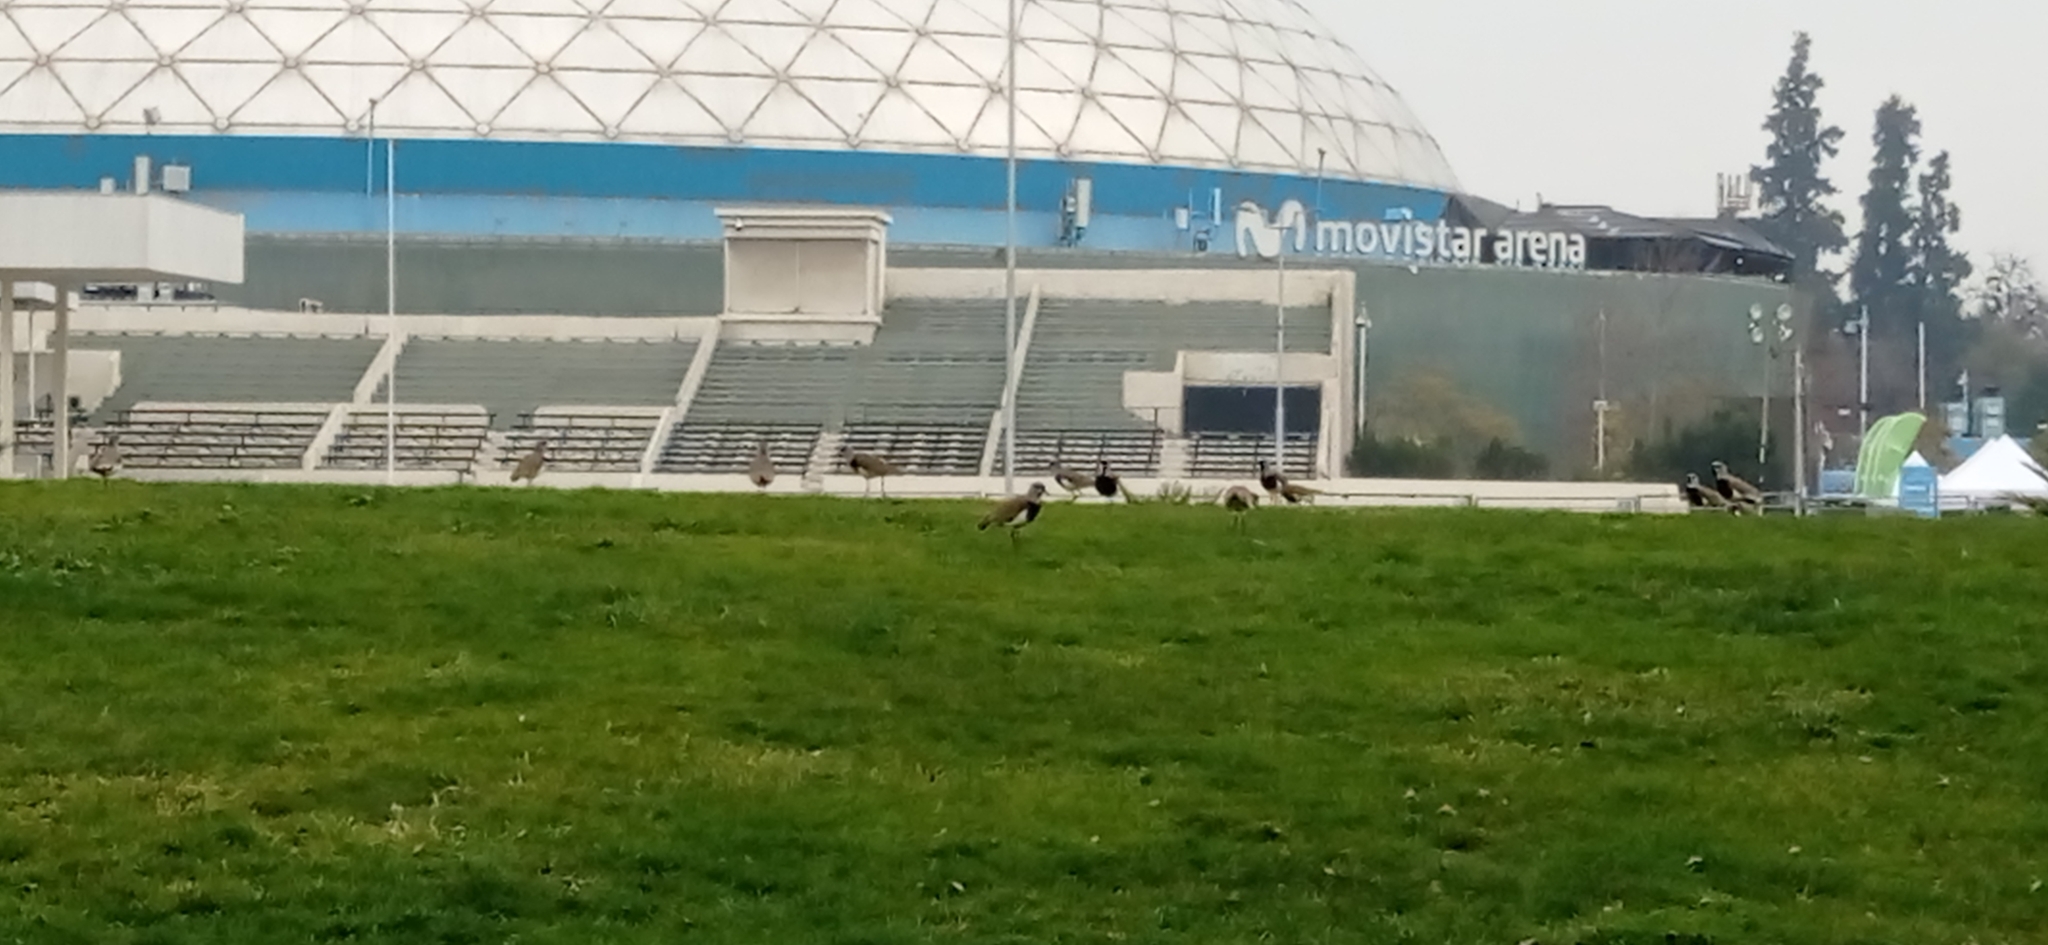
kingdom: Animalia
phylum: Chordata
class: Aves
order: Charadriiformes
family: Charadriidae
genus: Vanellus
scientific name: Vanellus chilensis
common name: Southern lapwing
